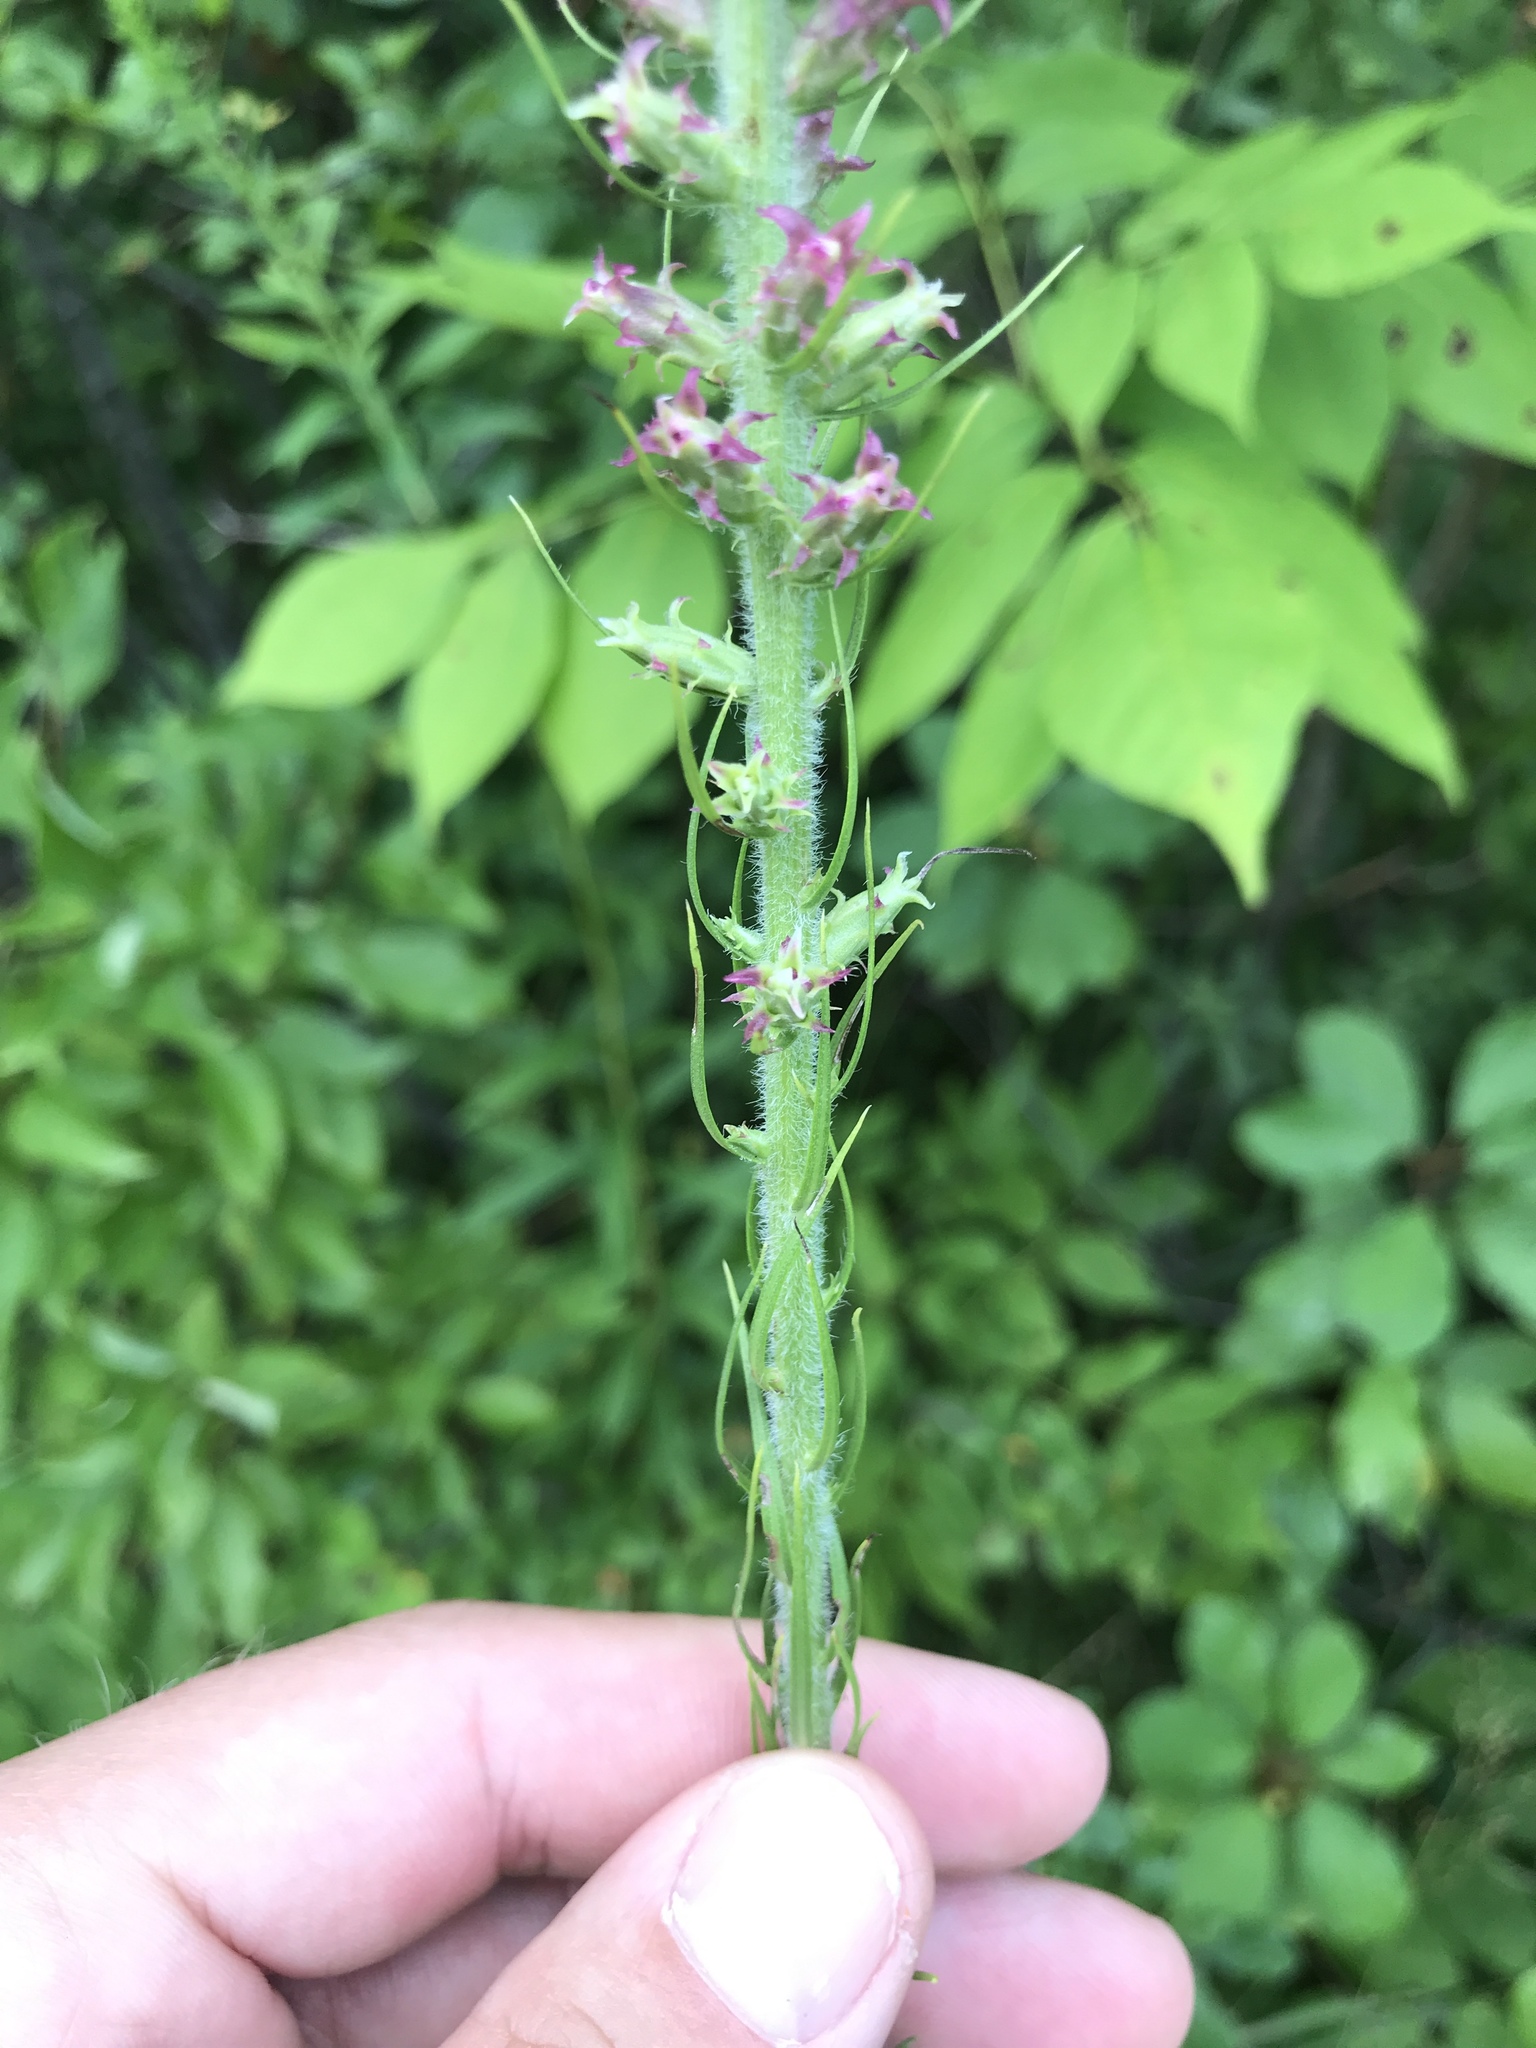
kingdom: Plantae
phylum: Tracheophyta
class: Magnoliopsida
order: Asterales
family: Asteraceae
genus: Liatris
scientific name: Liatris pycnostachya
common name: Cattail gayfeather
